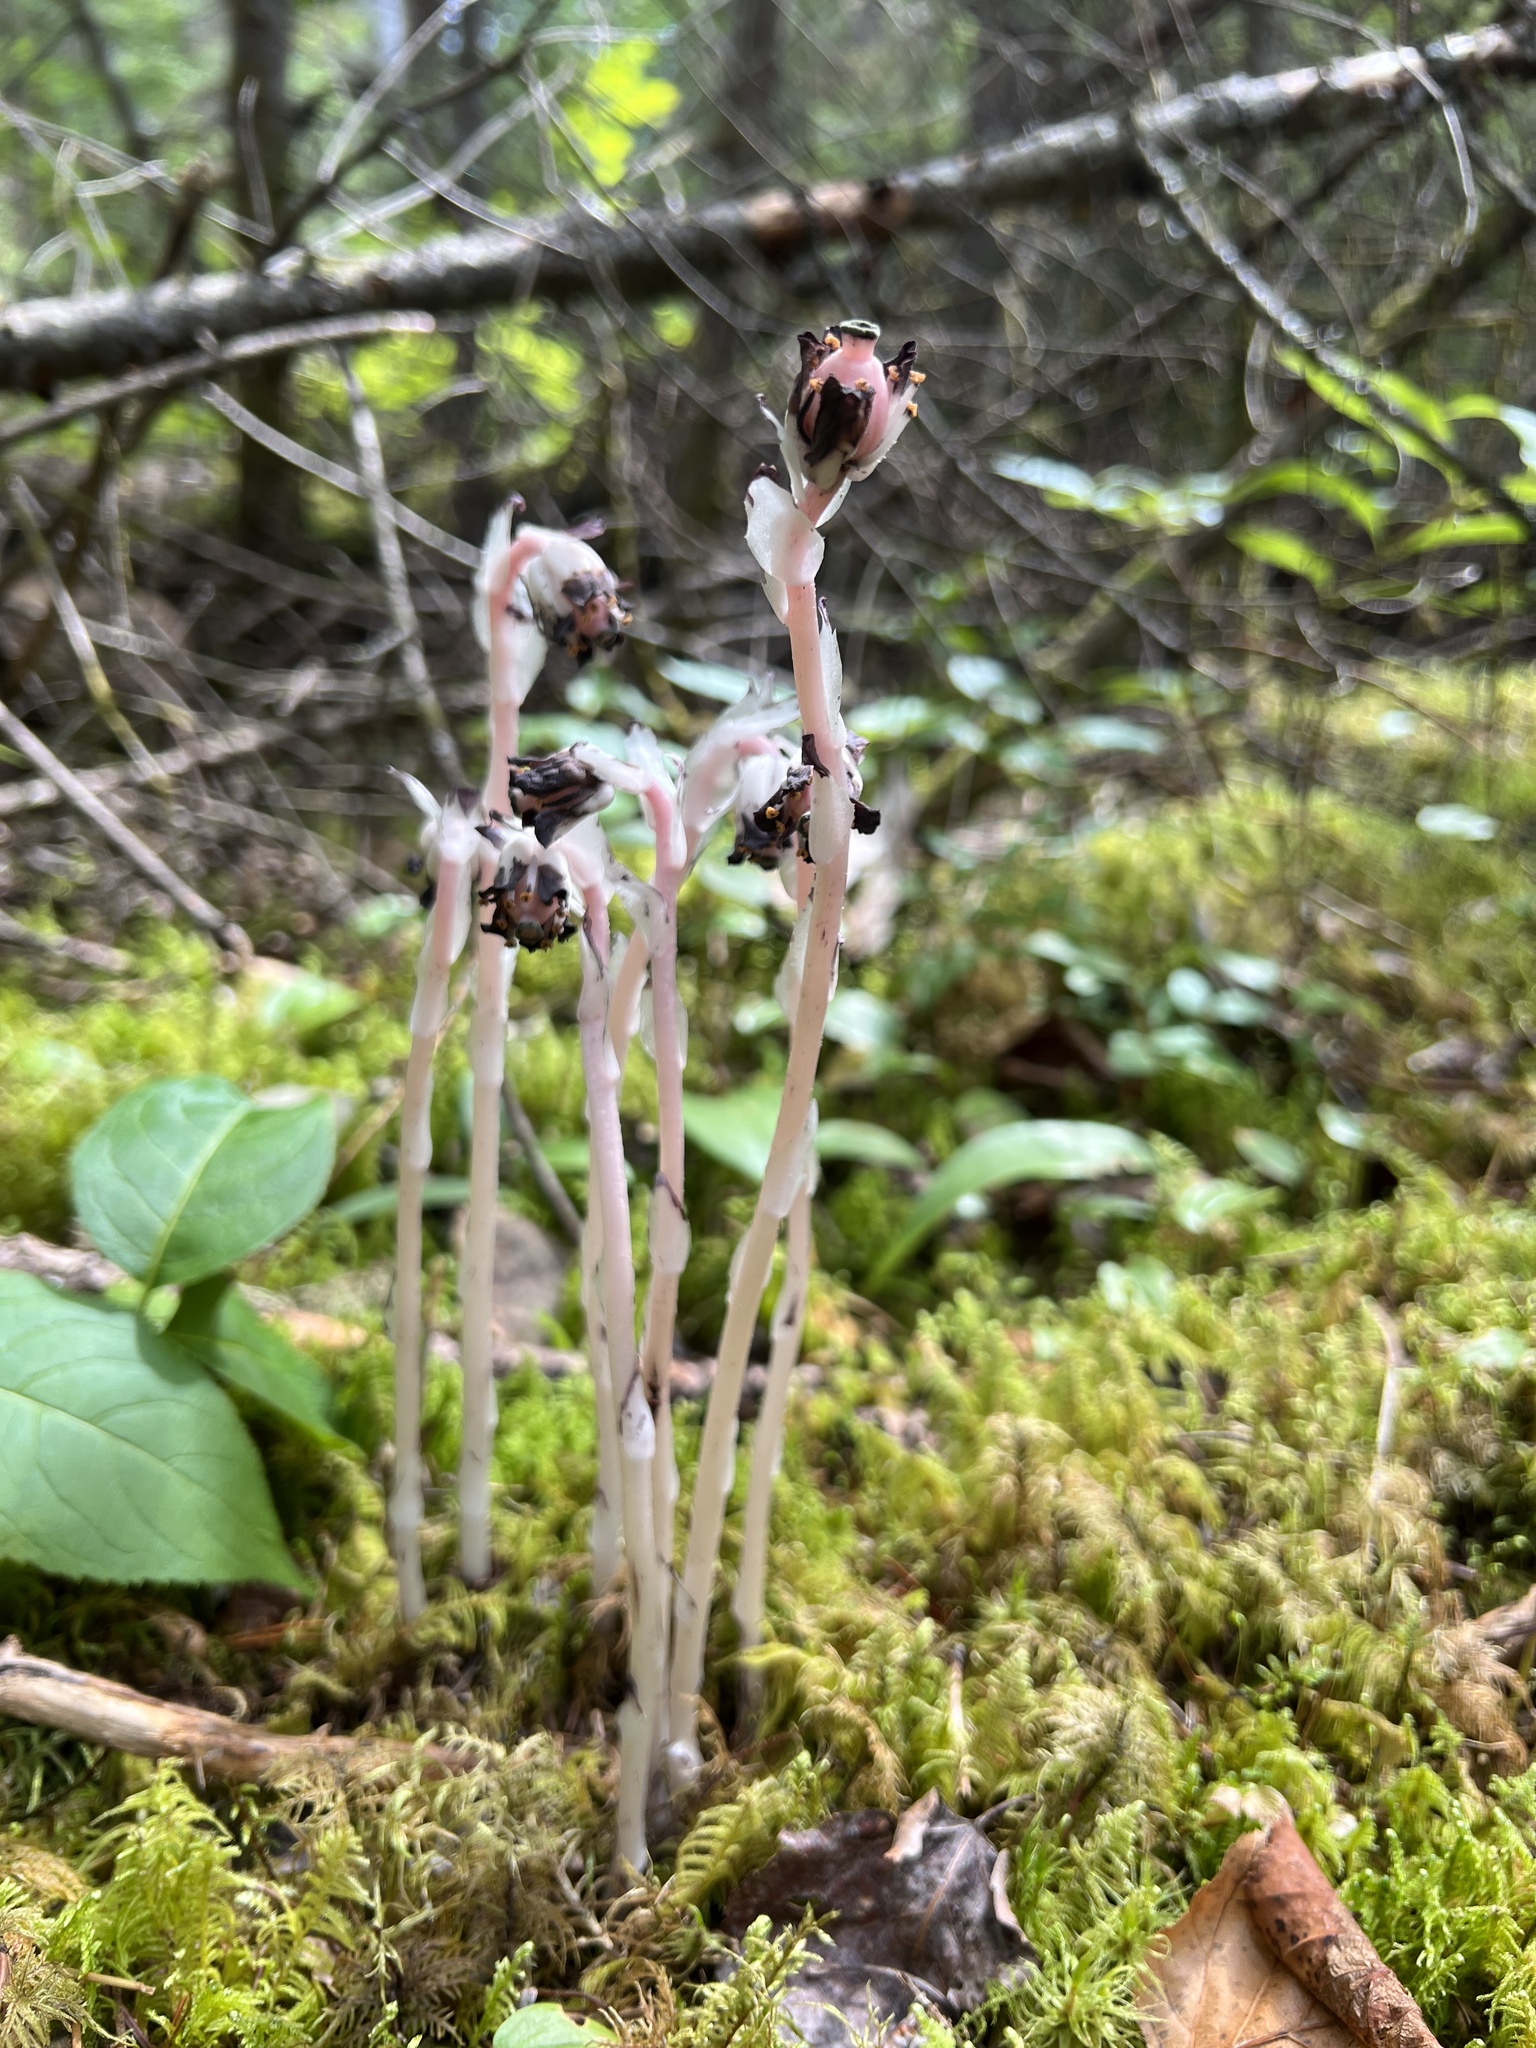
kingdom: Plantae
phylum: Tracheophyta
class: Magnoliopsida
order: Ericales
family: Ericaceae
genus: Monotropa
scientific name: Monotropa uniflora
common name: Convulsion root
